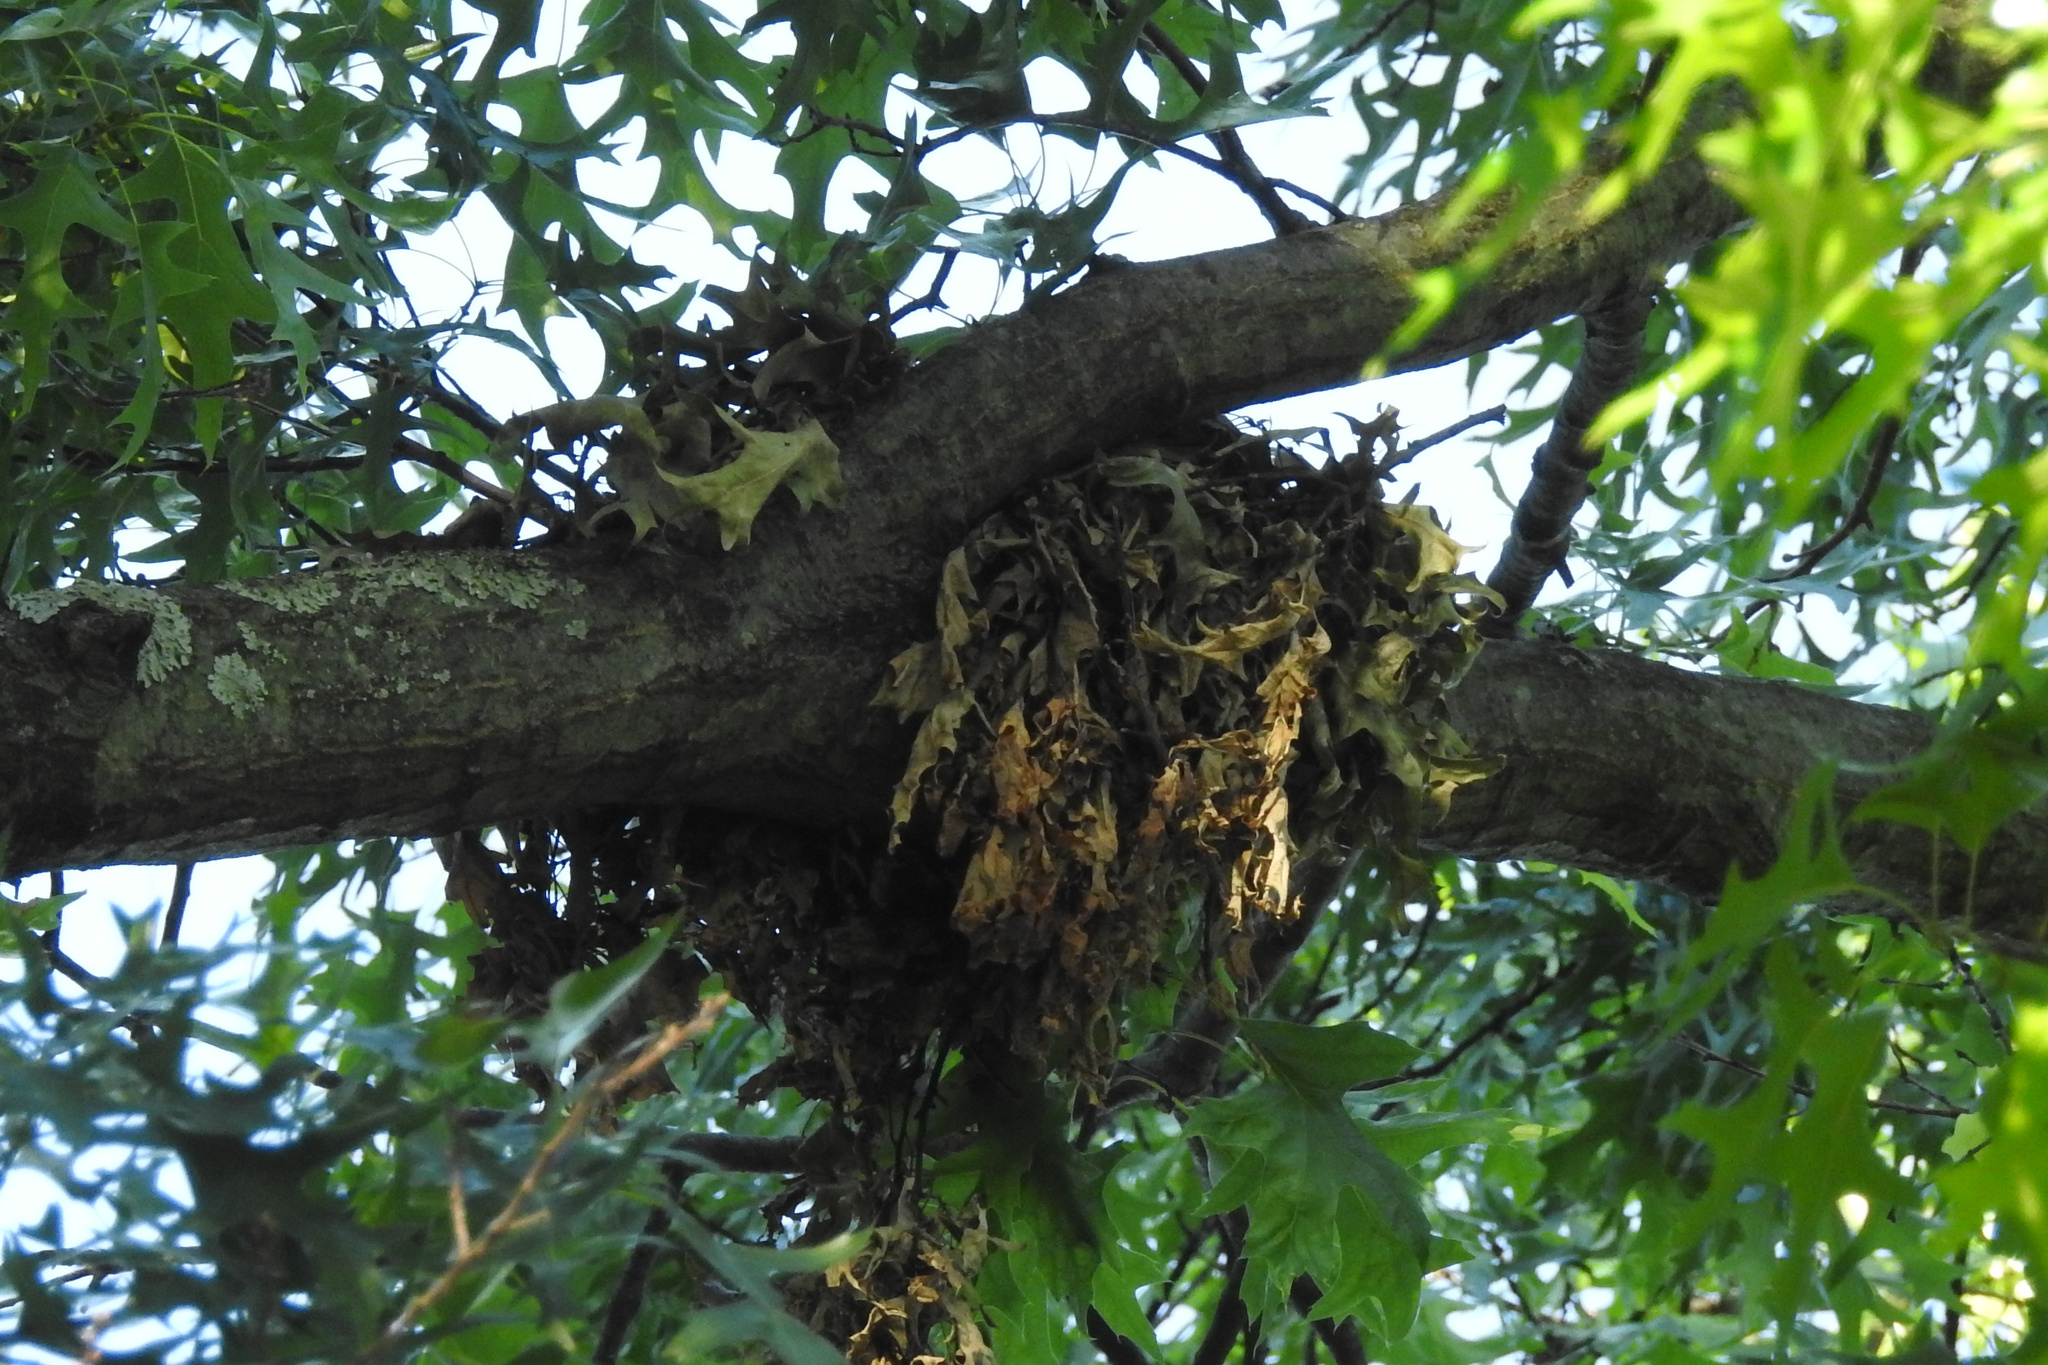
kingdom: Animalia
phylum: Chordata
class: Mammalia
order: Rodentia
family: Sciuridae
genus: Sciurus
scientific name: Sciurus carolinensis
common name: Eastern gray squirrel
